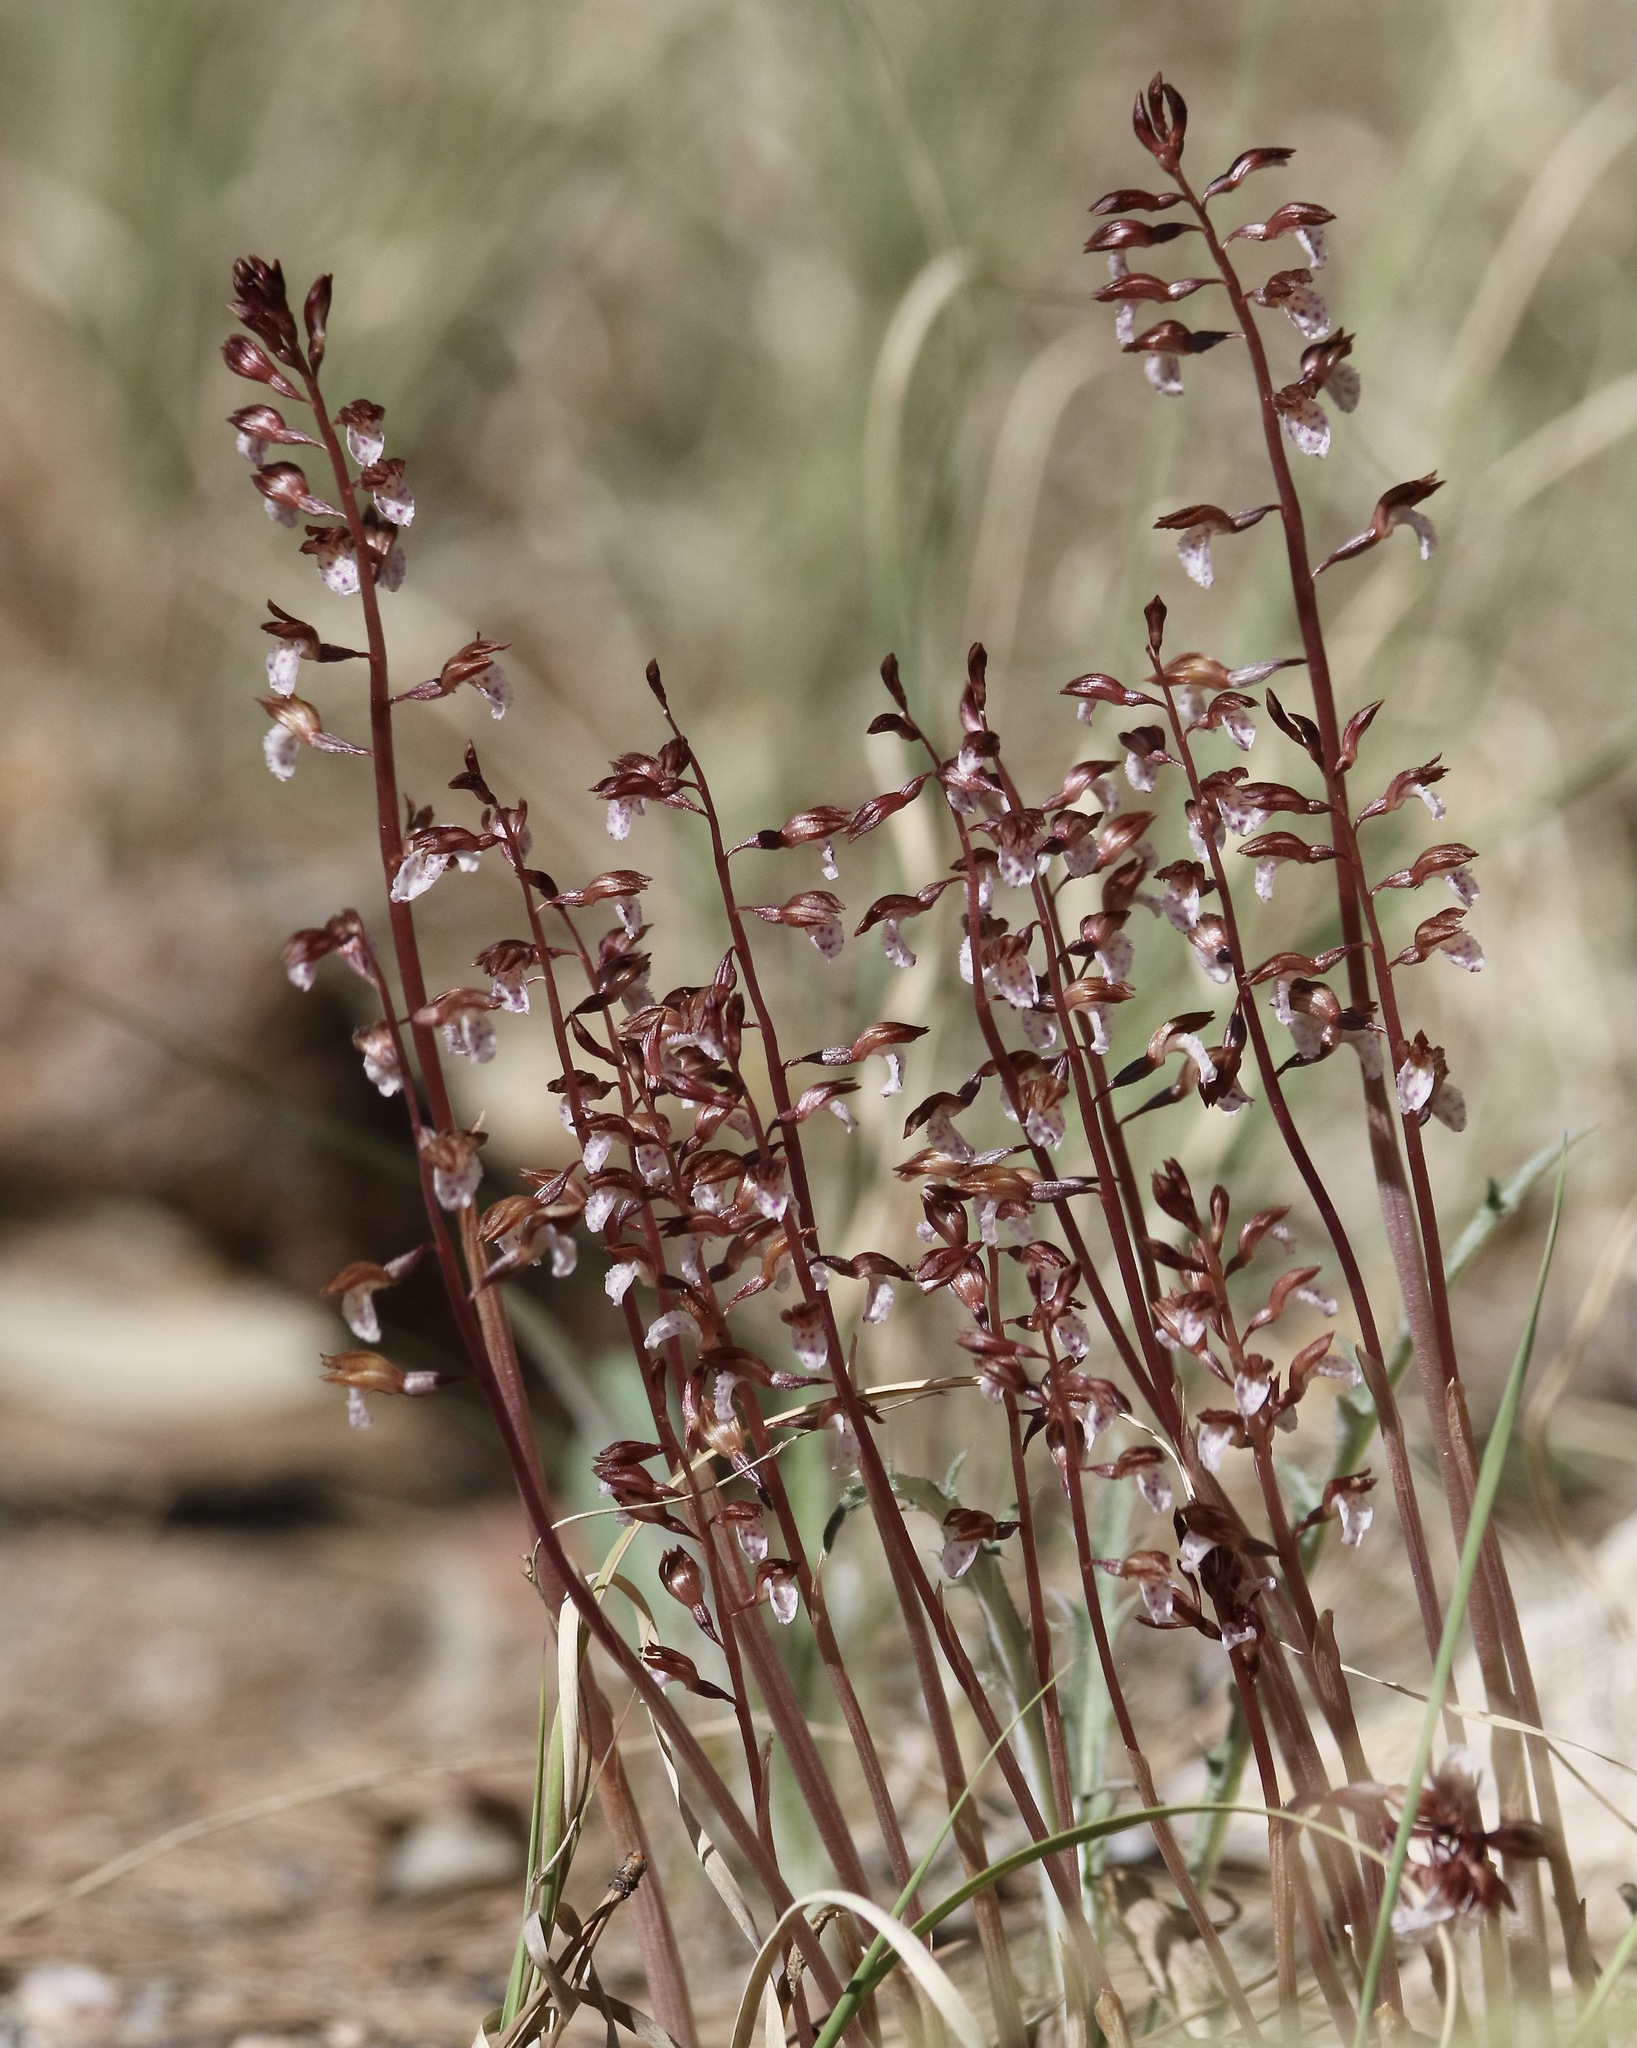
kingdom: Plantae
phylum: Tracheophyta
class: Liliopsida
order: Asparagales
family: Orchidaceae
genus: Corallorhiza
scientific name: Corallorhiza wisteriana
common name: Spring coralroot
